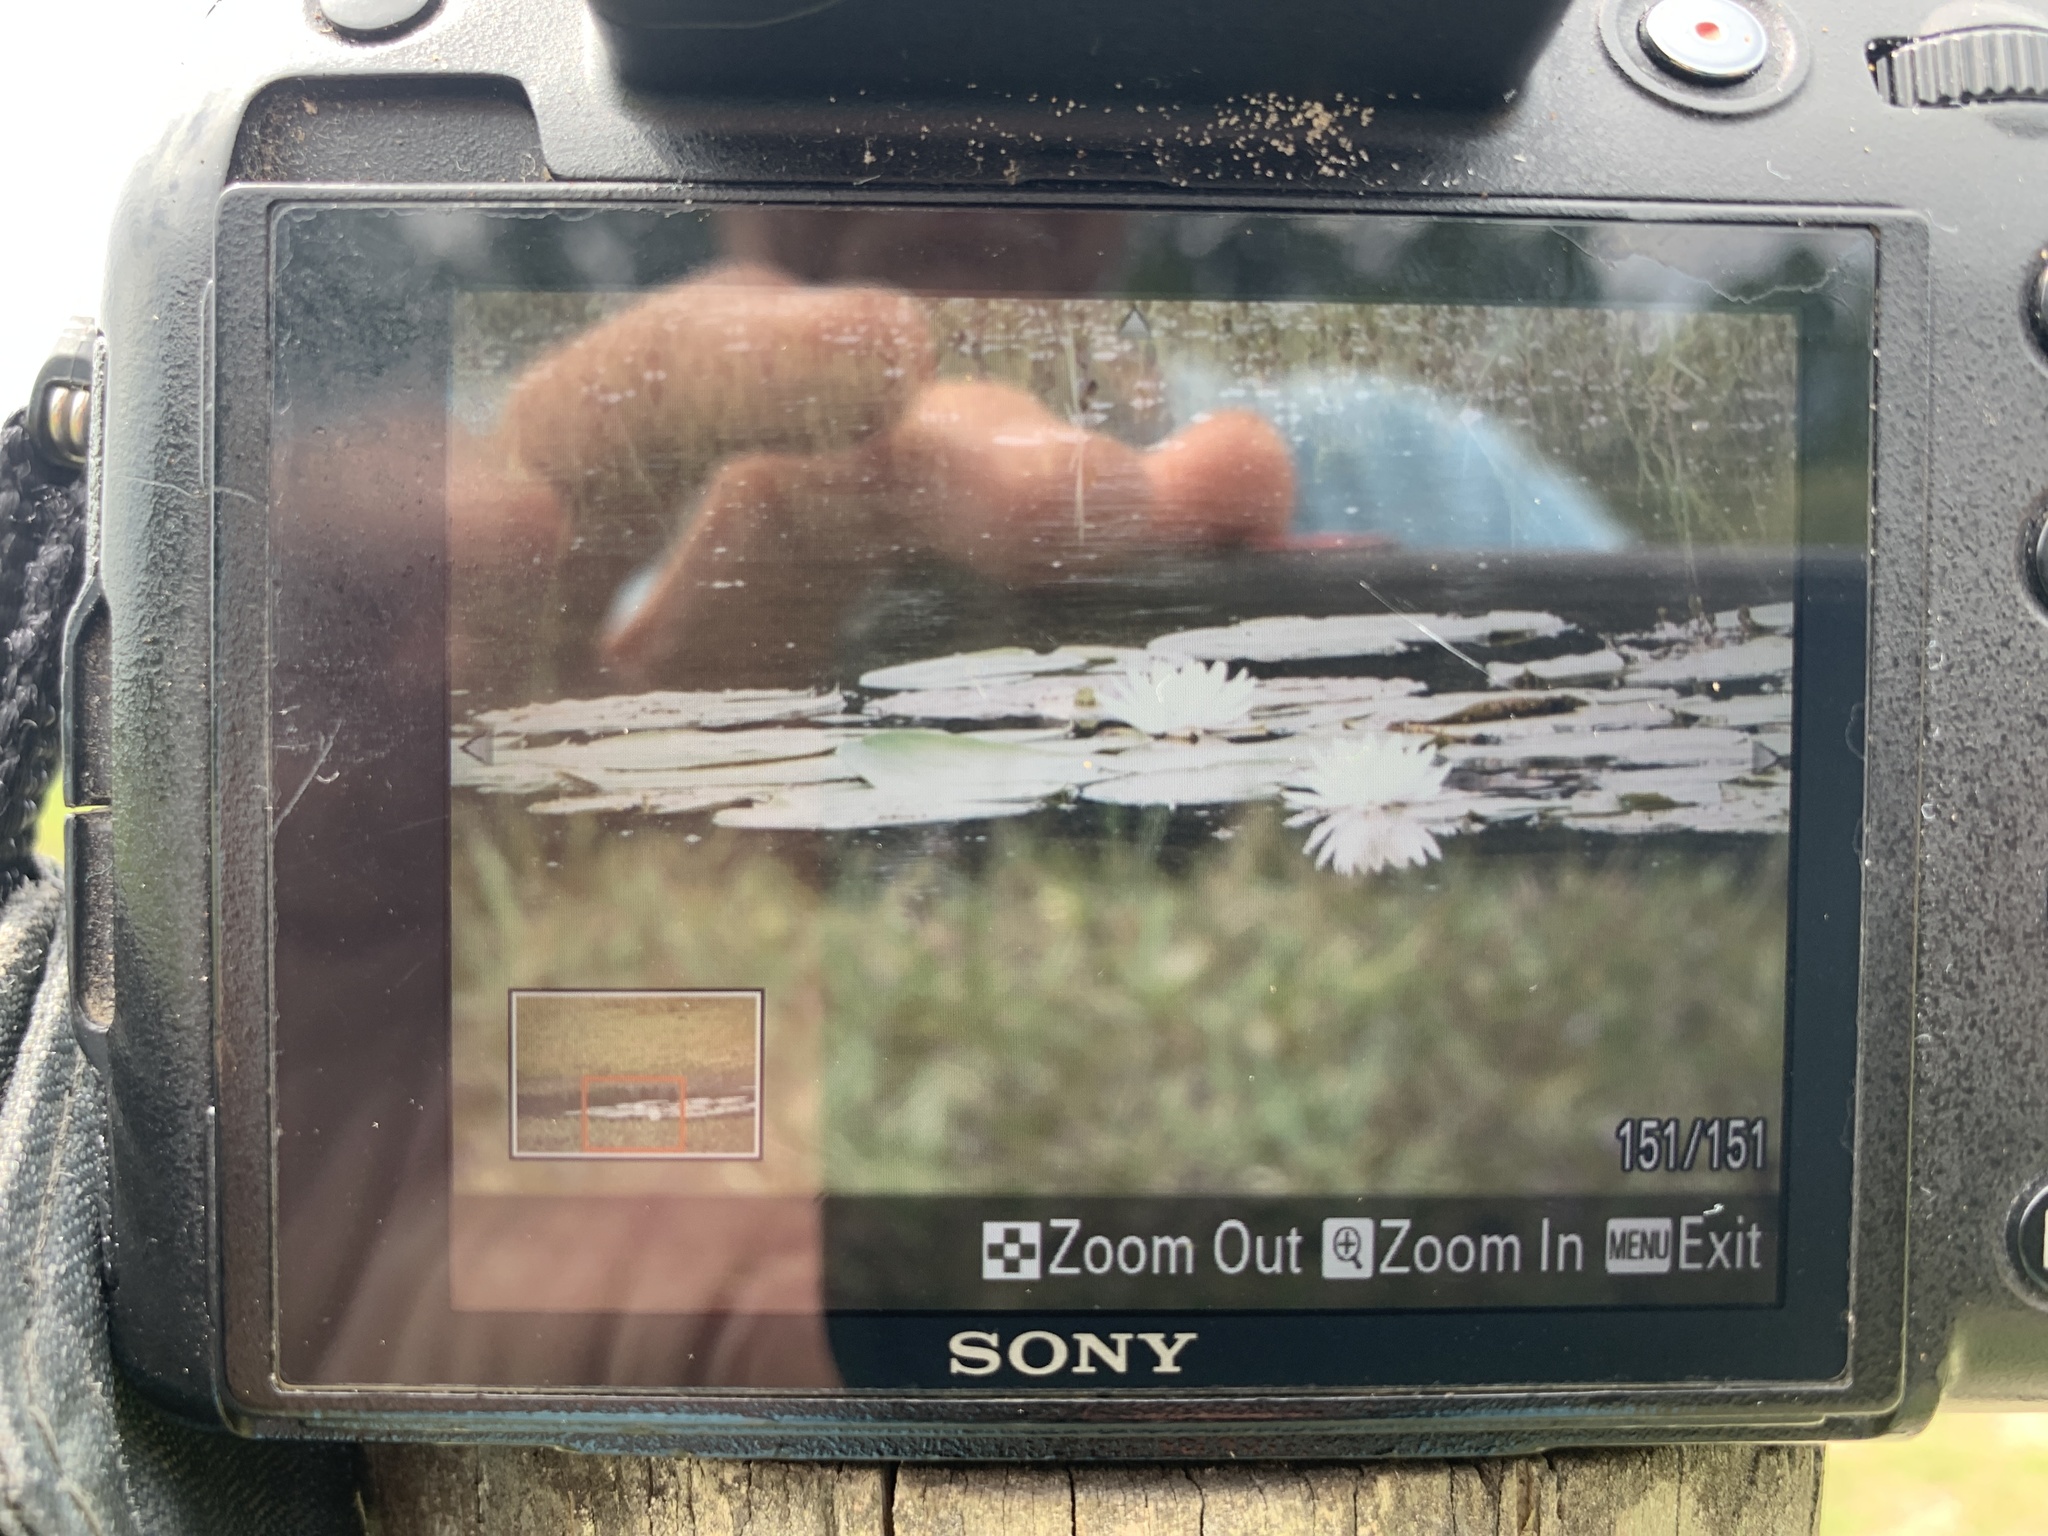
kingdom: Plantae
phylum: Tracheophyta
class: Magnoliopsida
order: Nymphaeales
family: Nymphaeaceae
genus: Nymphaea
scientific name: Nymphaea odorata
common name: Fragrant water-lily
